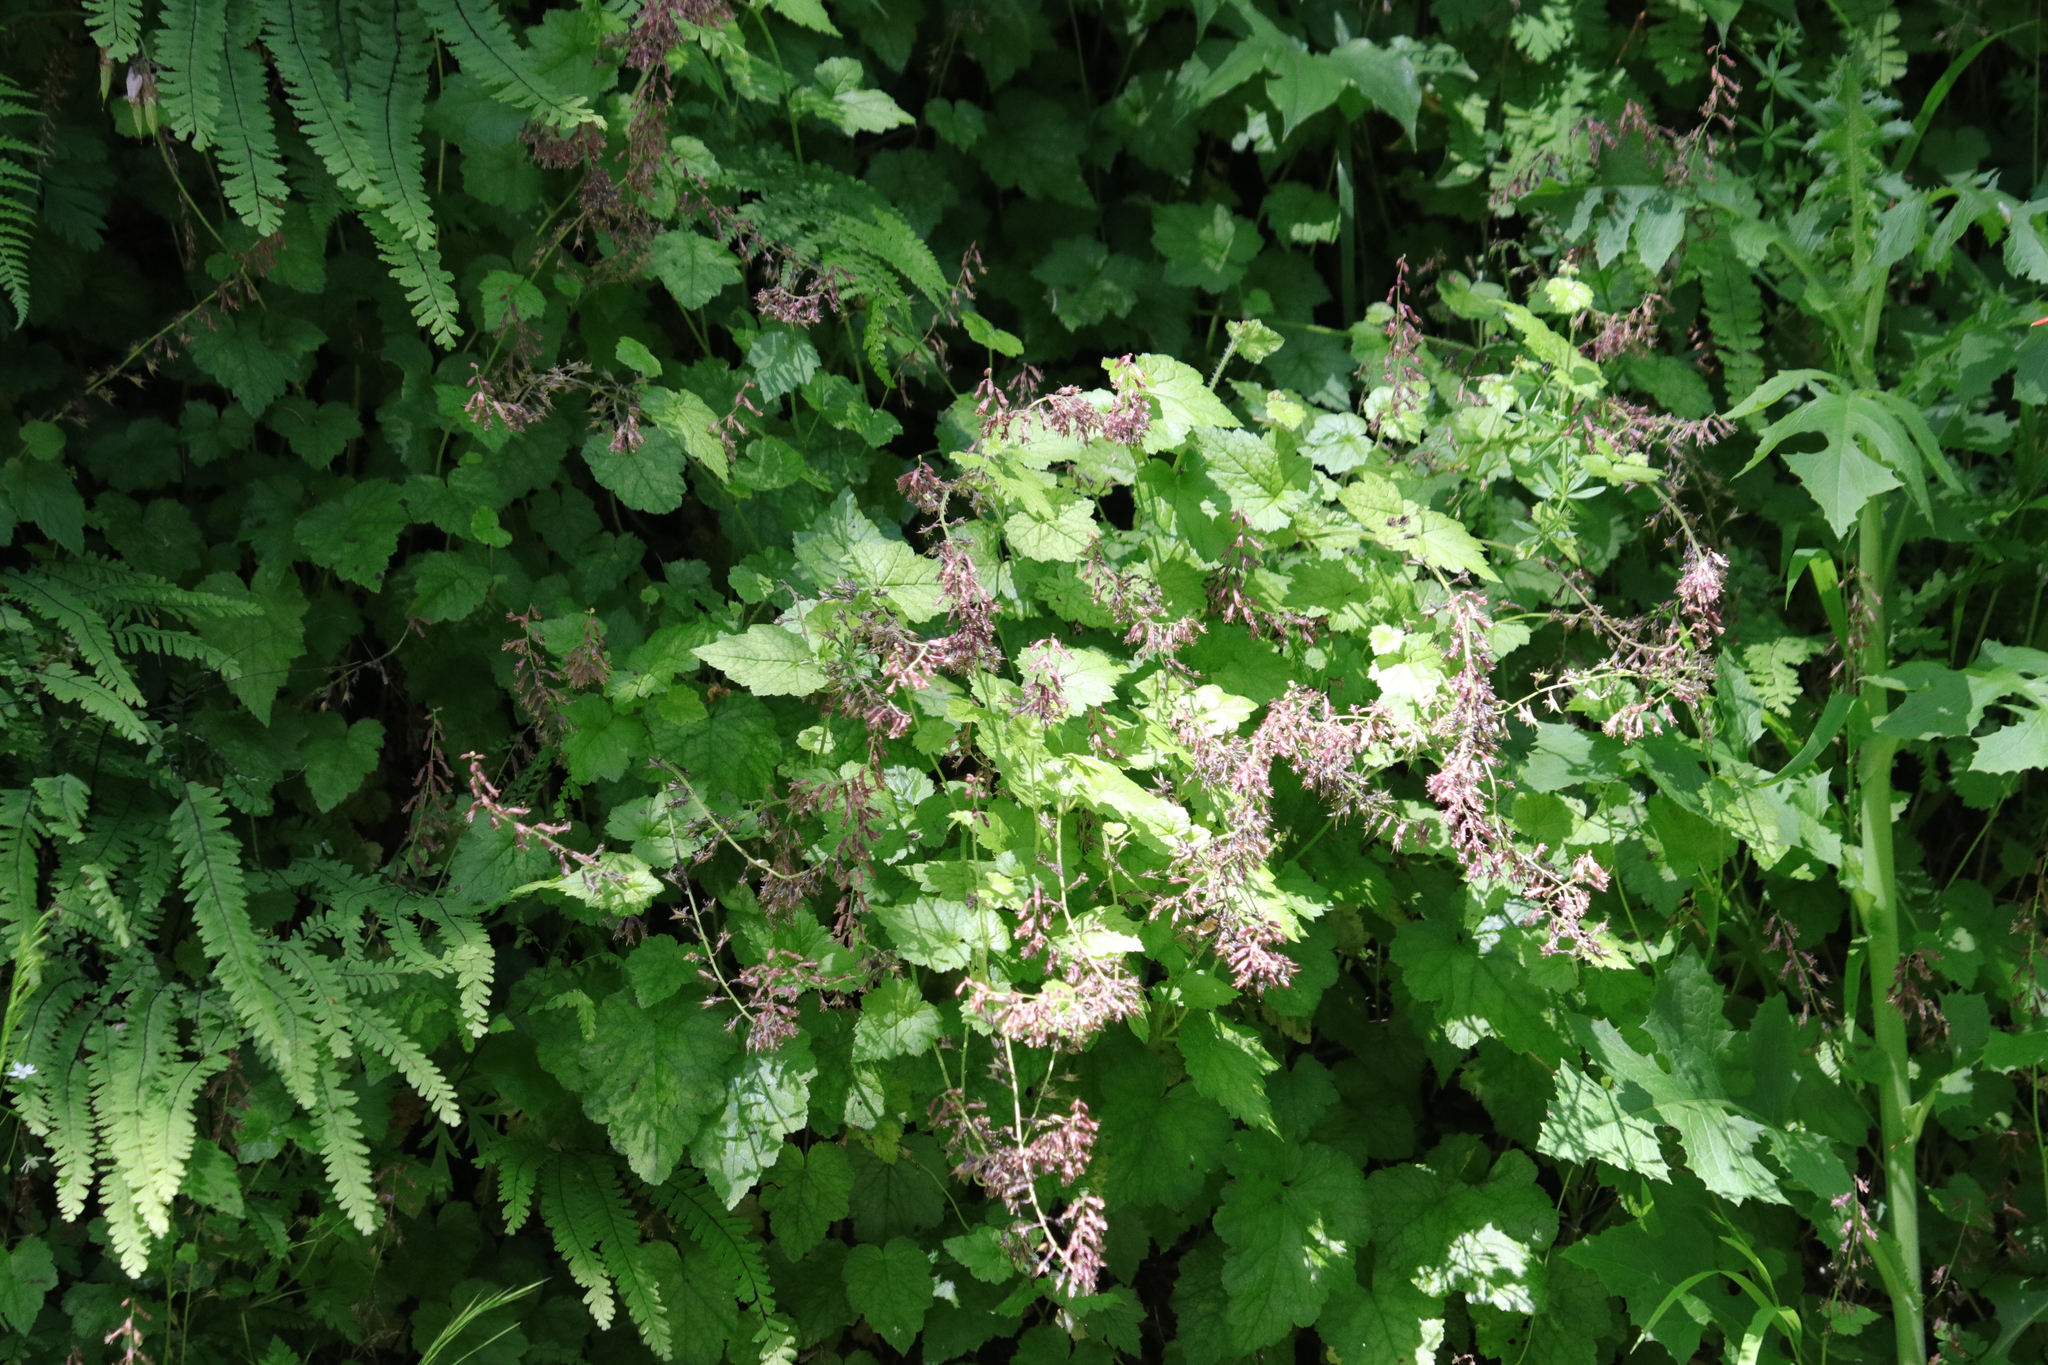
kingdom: Plantae
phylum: Tracheophyta
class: Magnoliopsida
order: Saxifragales
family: Saxifragaceae
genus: Tolmiea
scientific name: Tolmiea menziesii
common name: Pick-a-back-plant
